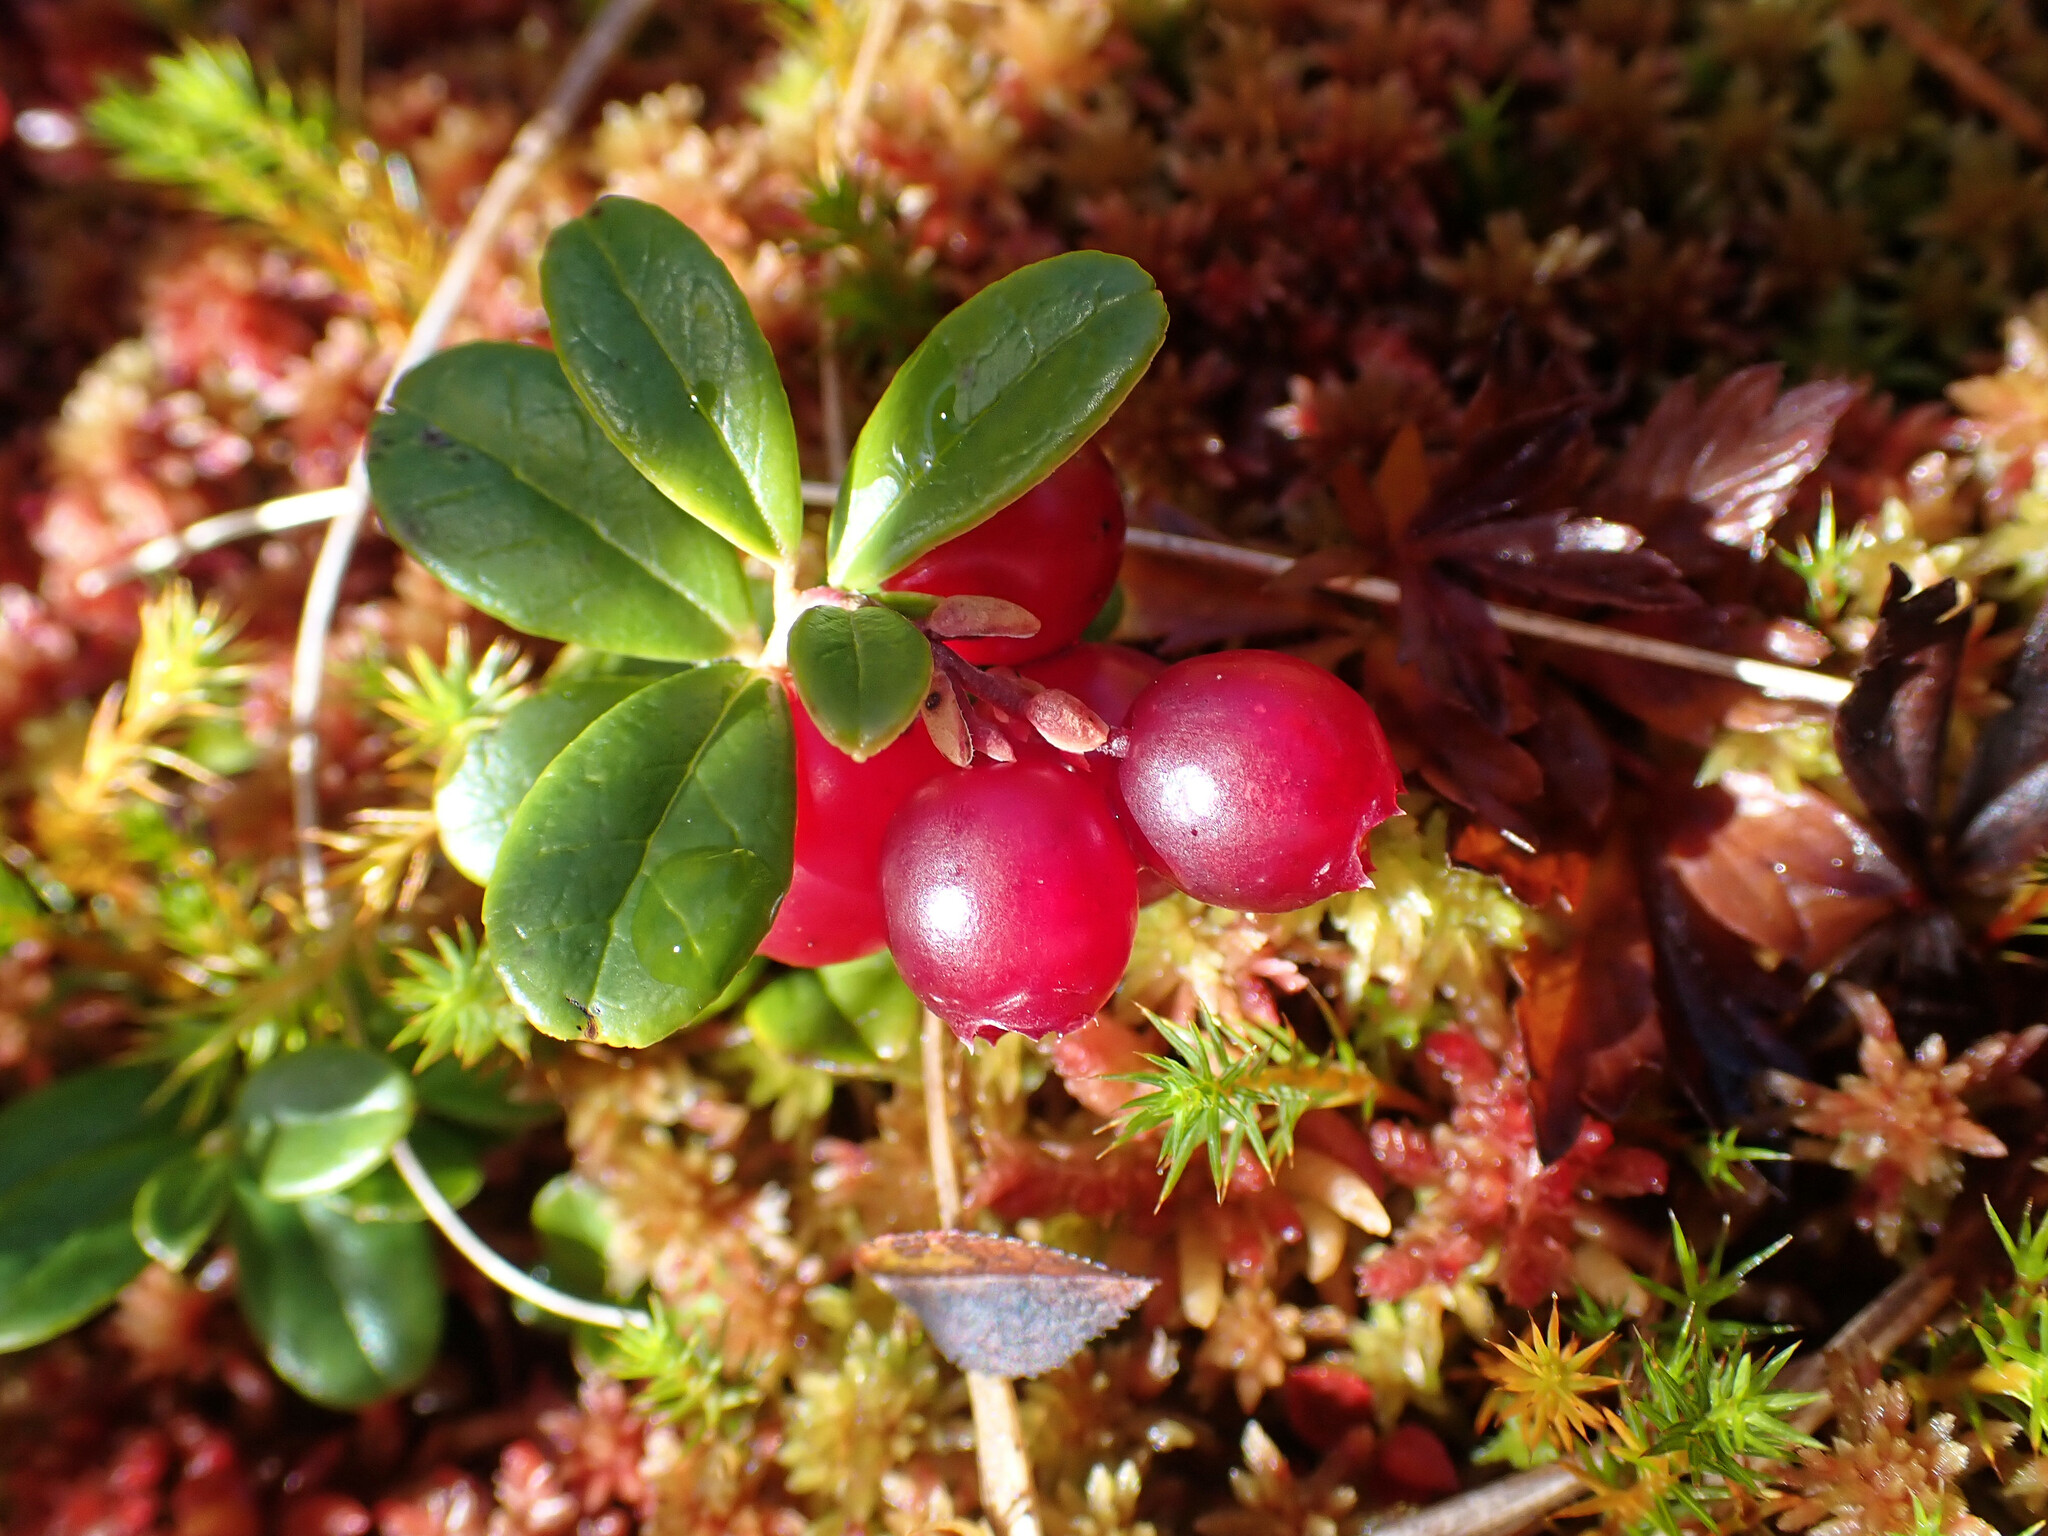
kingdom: Plantae
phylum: Tracheophyta
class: Magnoliopsida
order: Ericales
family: Ericaceae
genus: Vaccinium
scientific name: Vaccinium vitis-idaea
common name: Cowberry
